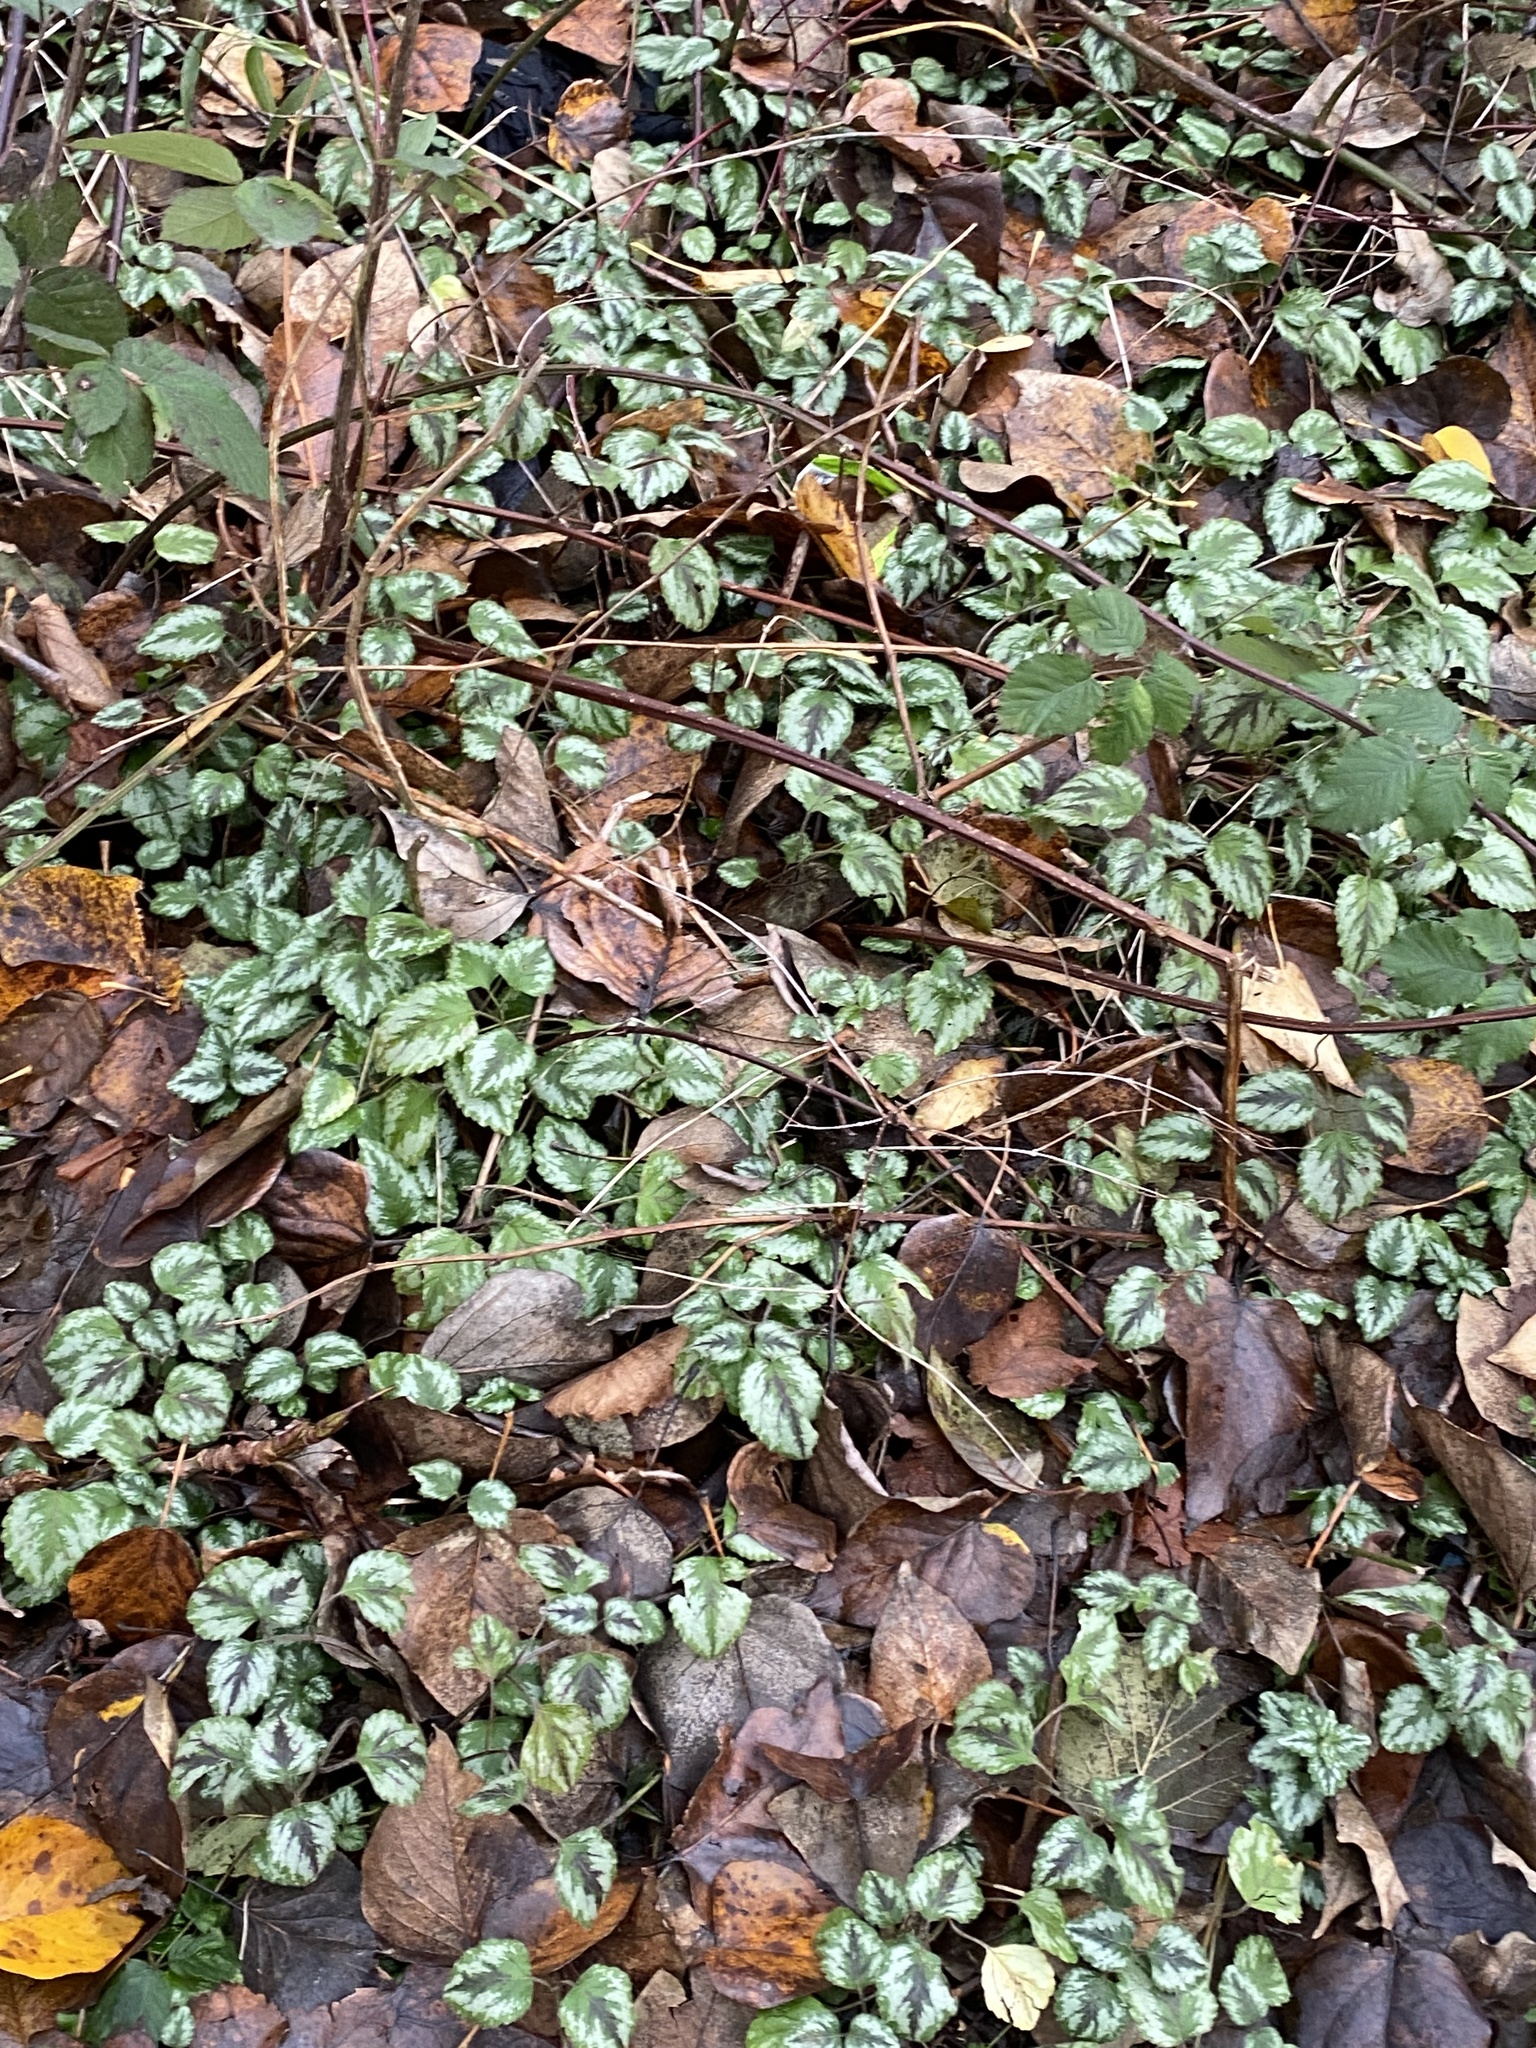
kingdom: Plantae
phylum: Tracheophyta
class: Magnoliopsida
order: Lamiales
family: Lamiaceae
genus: Lamium
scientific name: Lamium galeobdolon
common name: Yellow archangel
